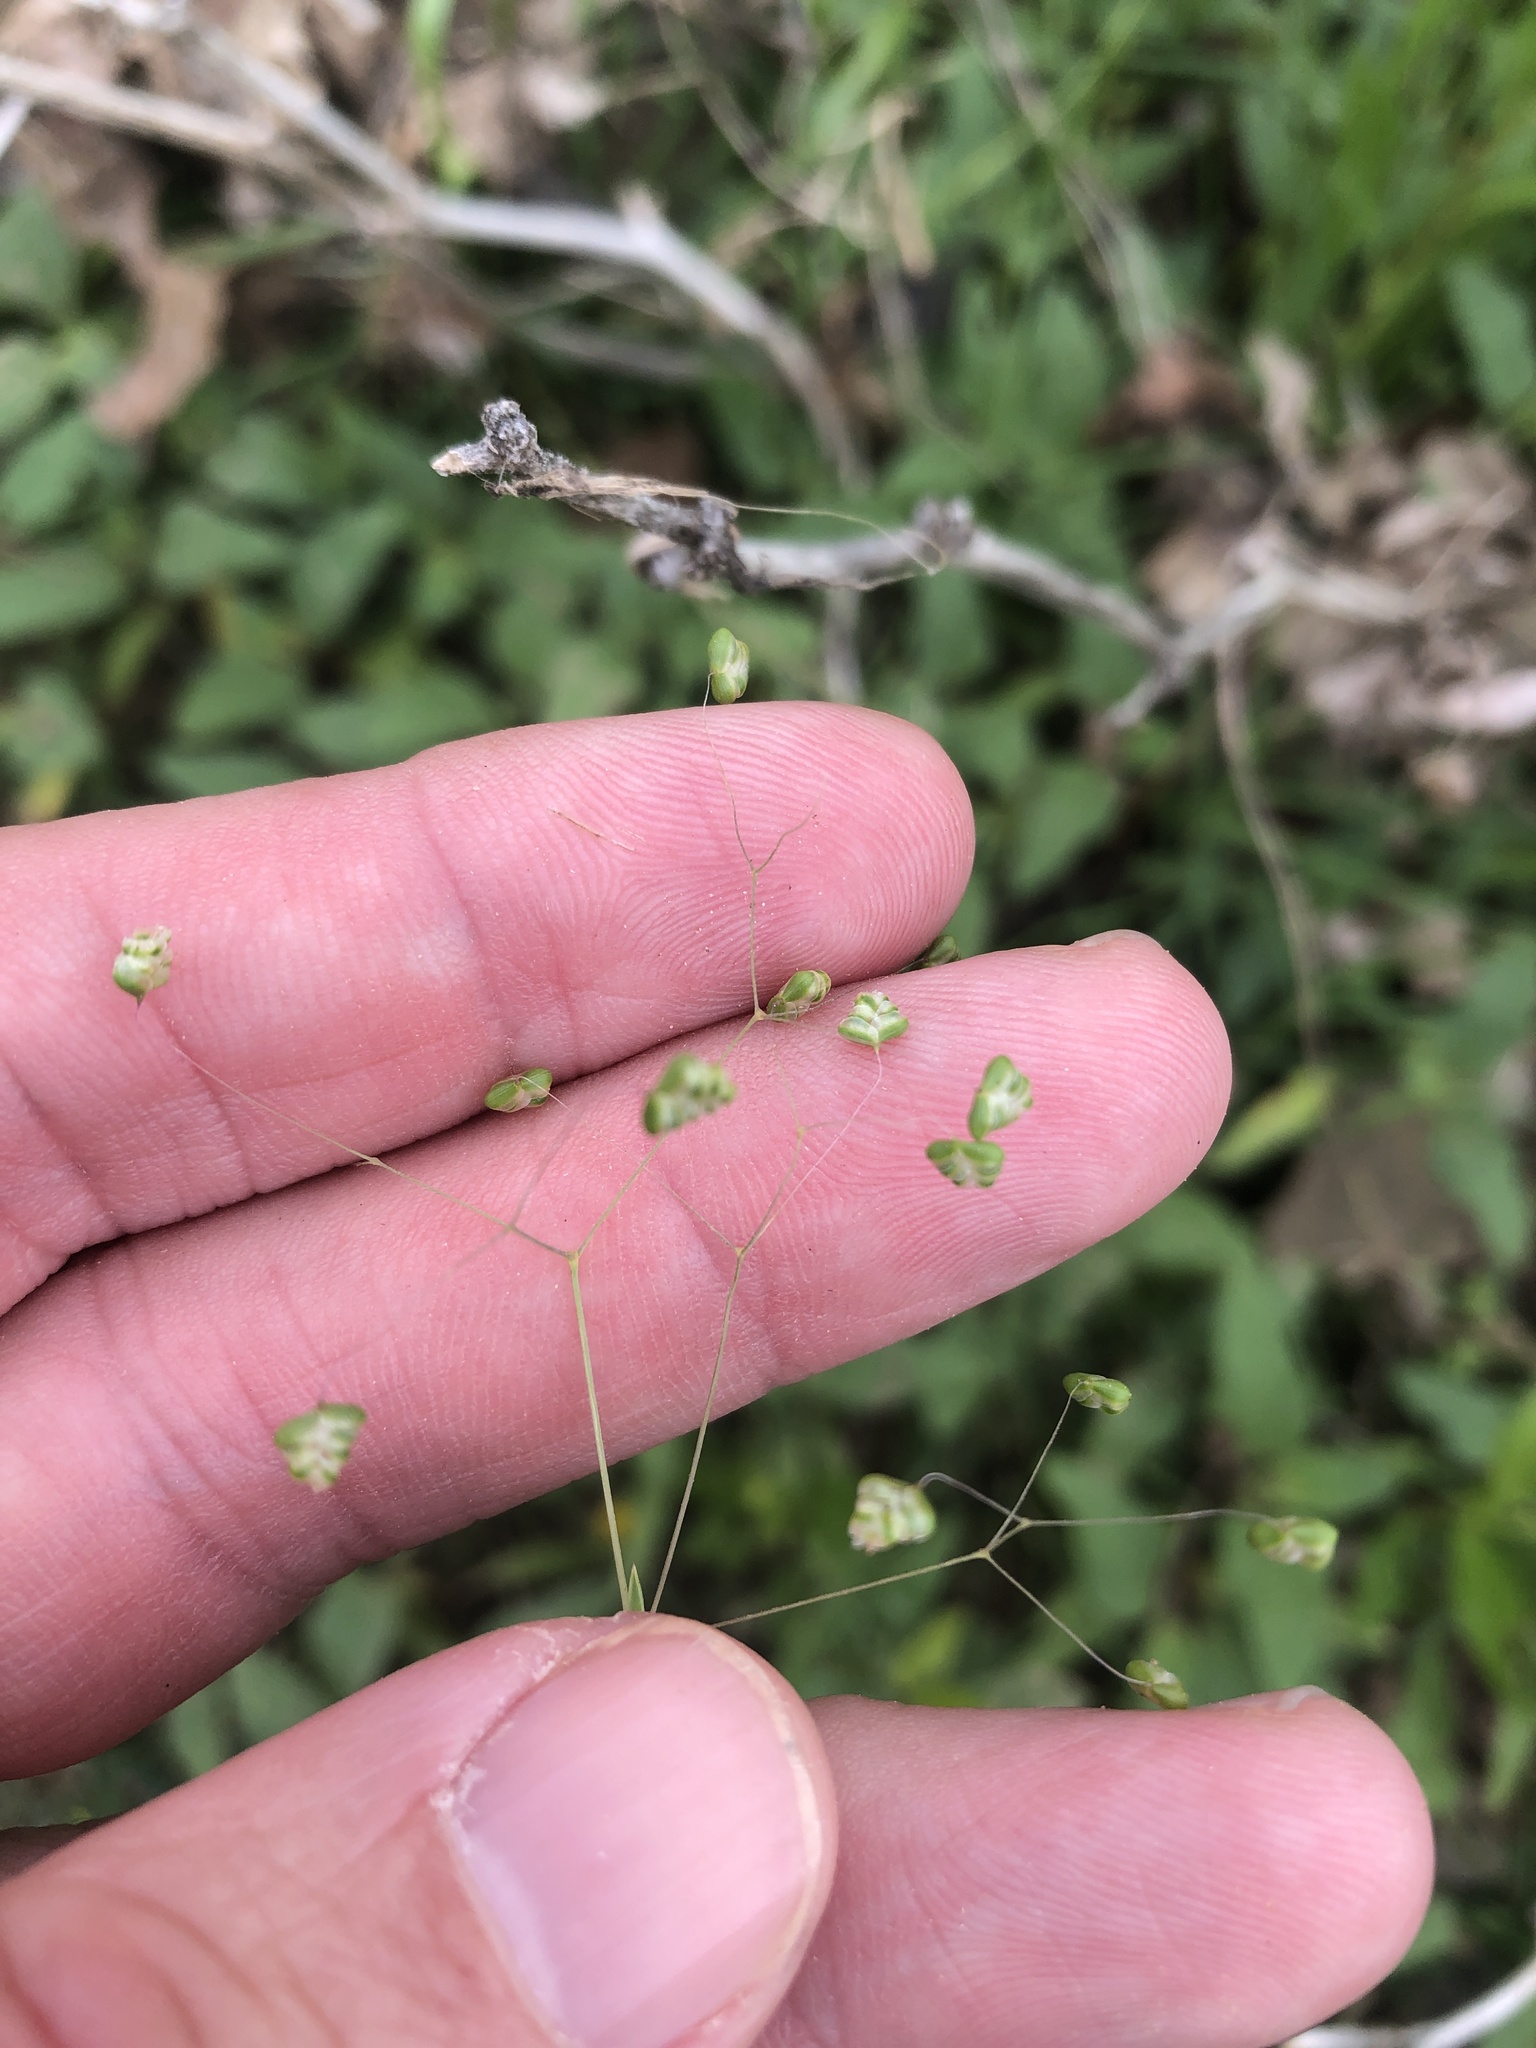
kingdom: Plantae
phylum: Tracheophyta
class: Liliopsida
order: Poales
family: Poaceae
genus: Briza
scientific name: Briza minor
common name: Lesser quaking-grass
